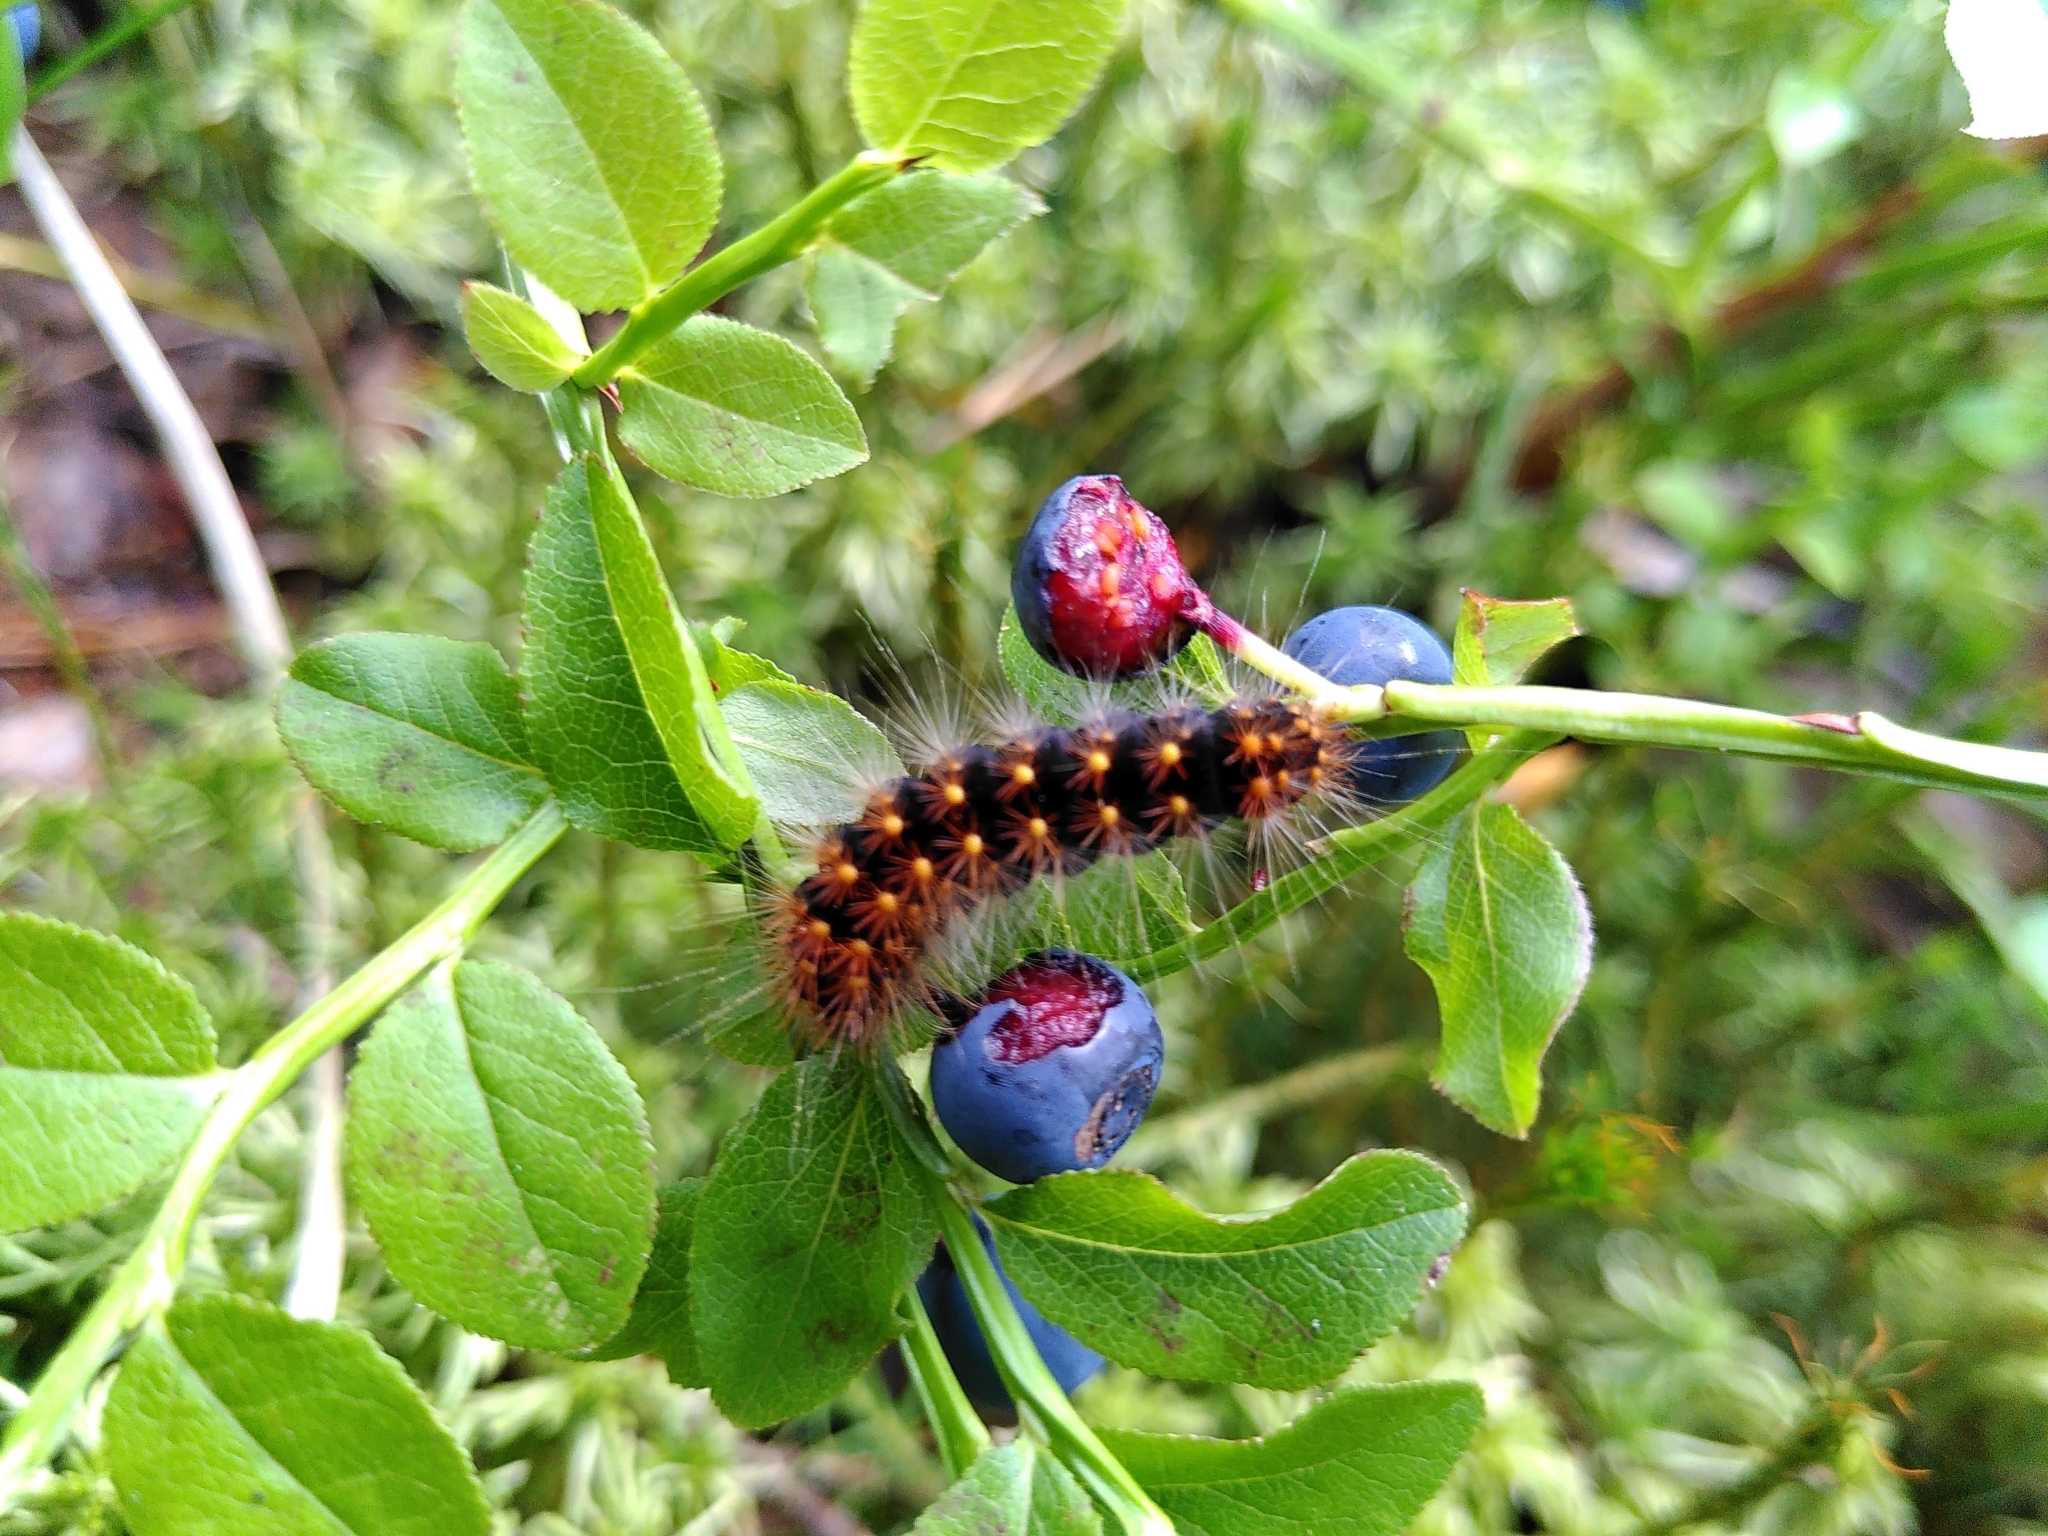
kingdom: Animalia
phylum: Arthropoda
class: Insecta
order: Lepidoptera
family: Noctuidae
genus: Acronicta
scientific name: Acronicta auricoma
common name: Scarce dagger
